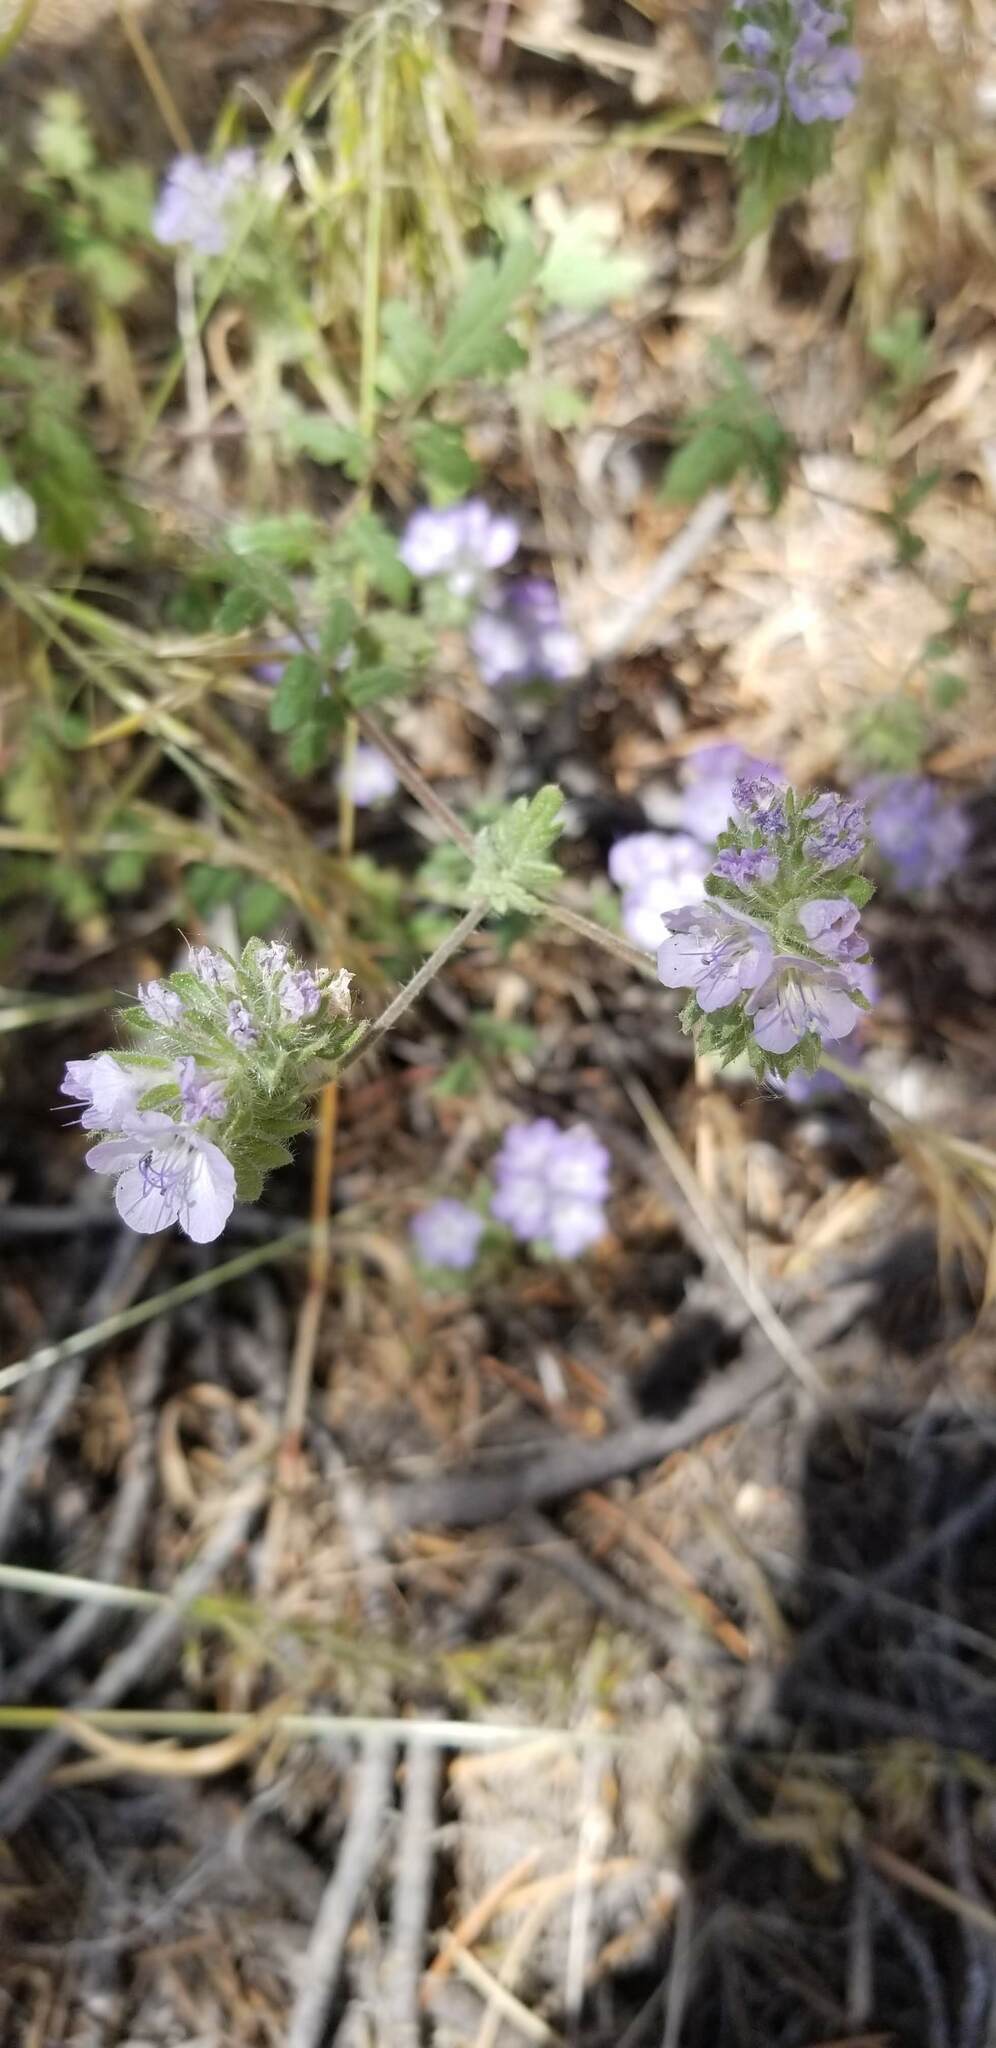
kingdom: Plantae
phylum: Tracheophyta
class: Magnoliopsida
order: Boraginales
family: Hydrophyllaceae
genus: Phacelia
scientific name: Phacelia distans
